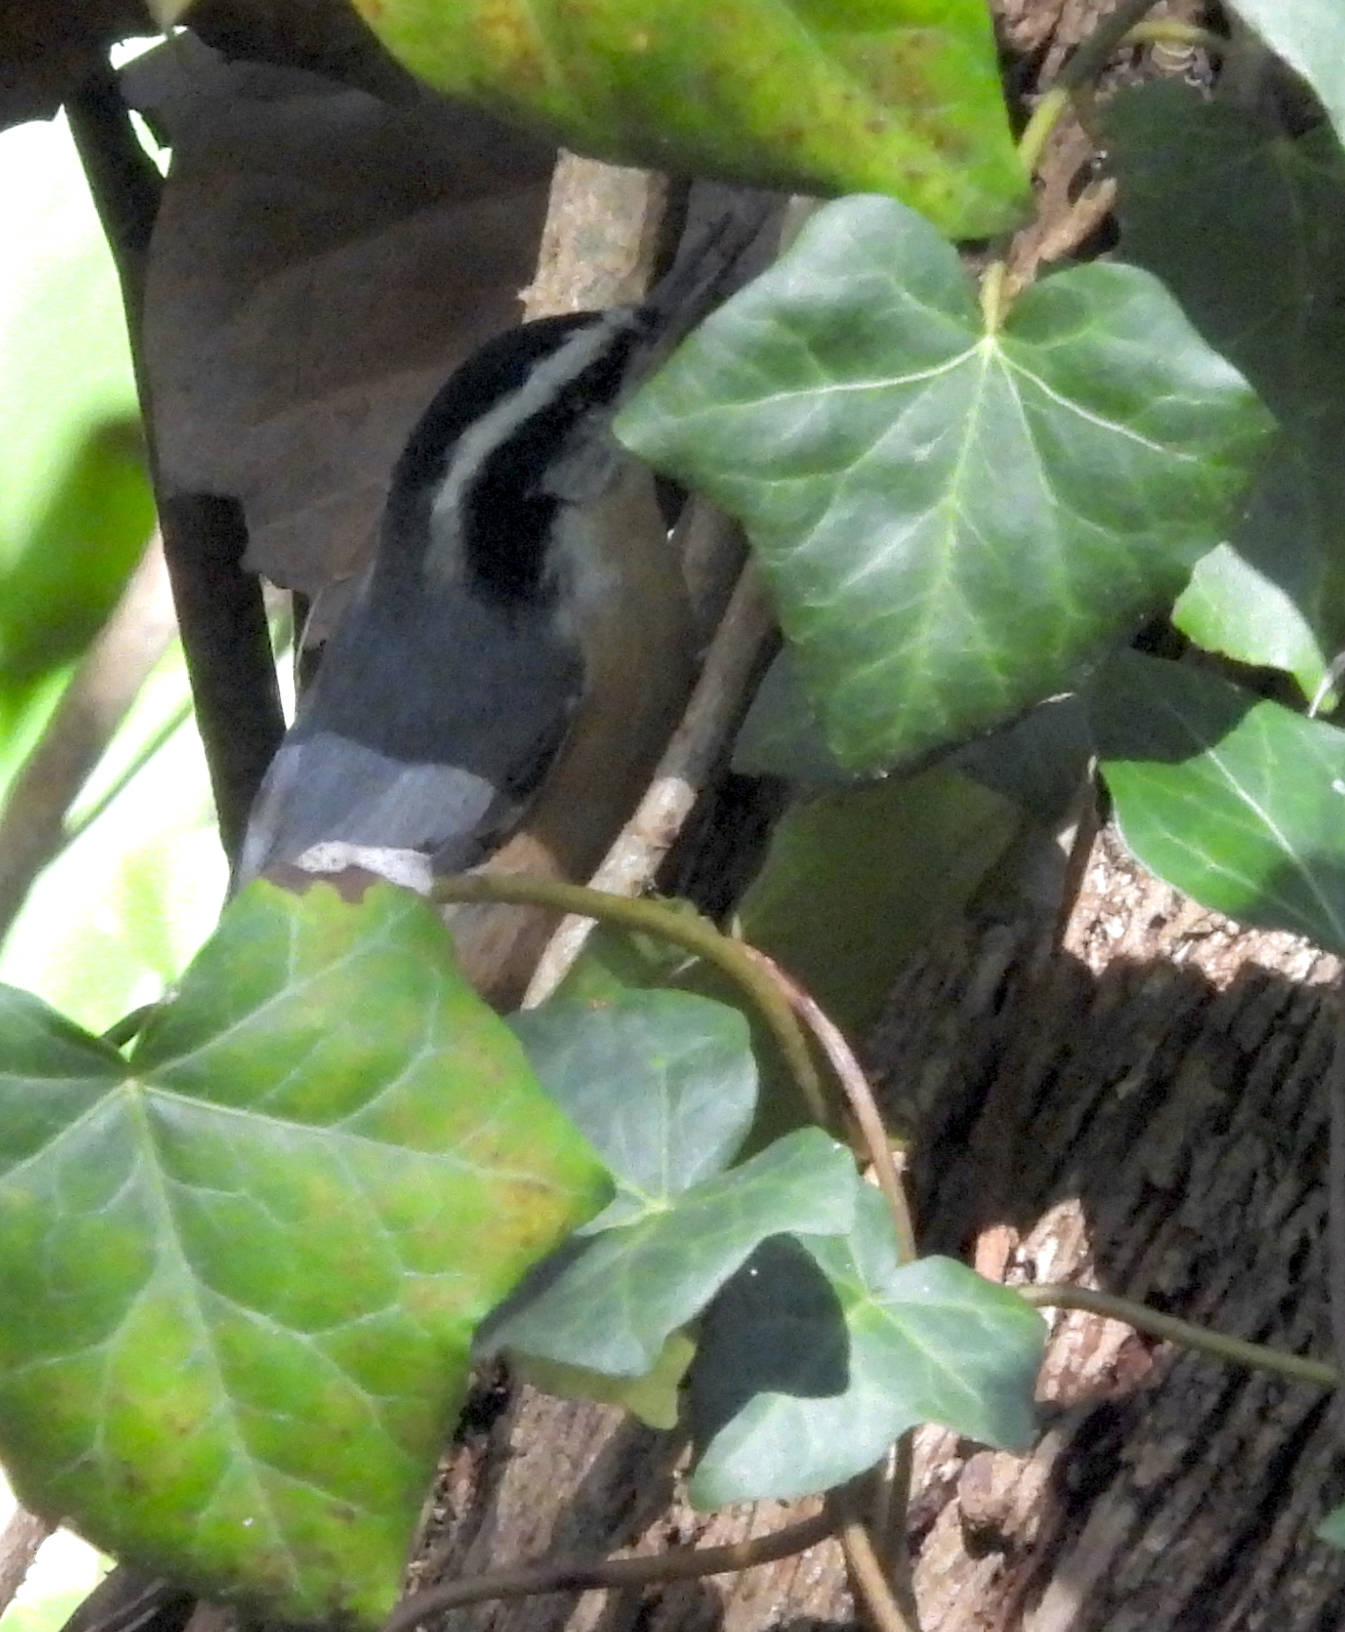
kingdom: Animalia
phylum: Chordata
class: Aves
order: Passeriformes
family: Sittidae
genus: Sitta
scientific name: Sitta canadensis
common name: Red-breasted nuthatch
